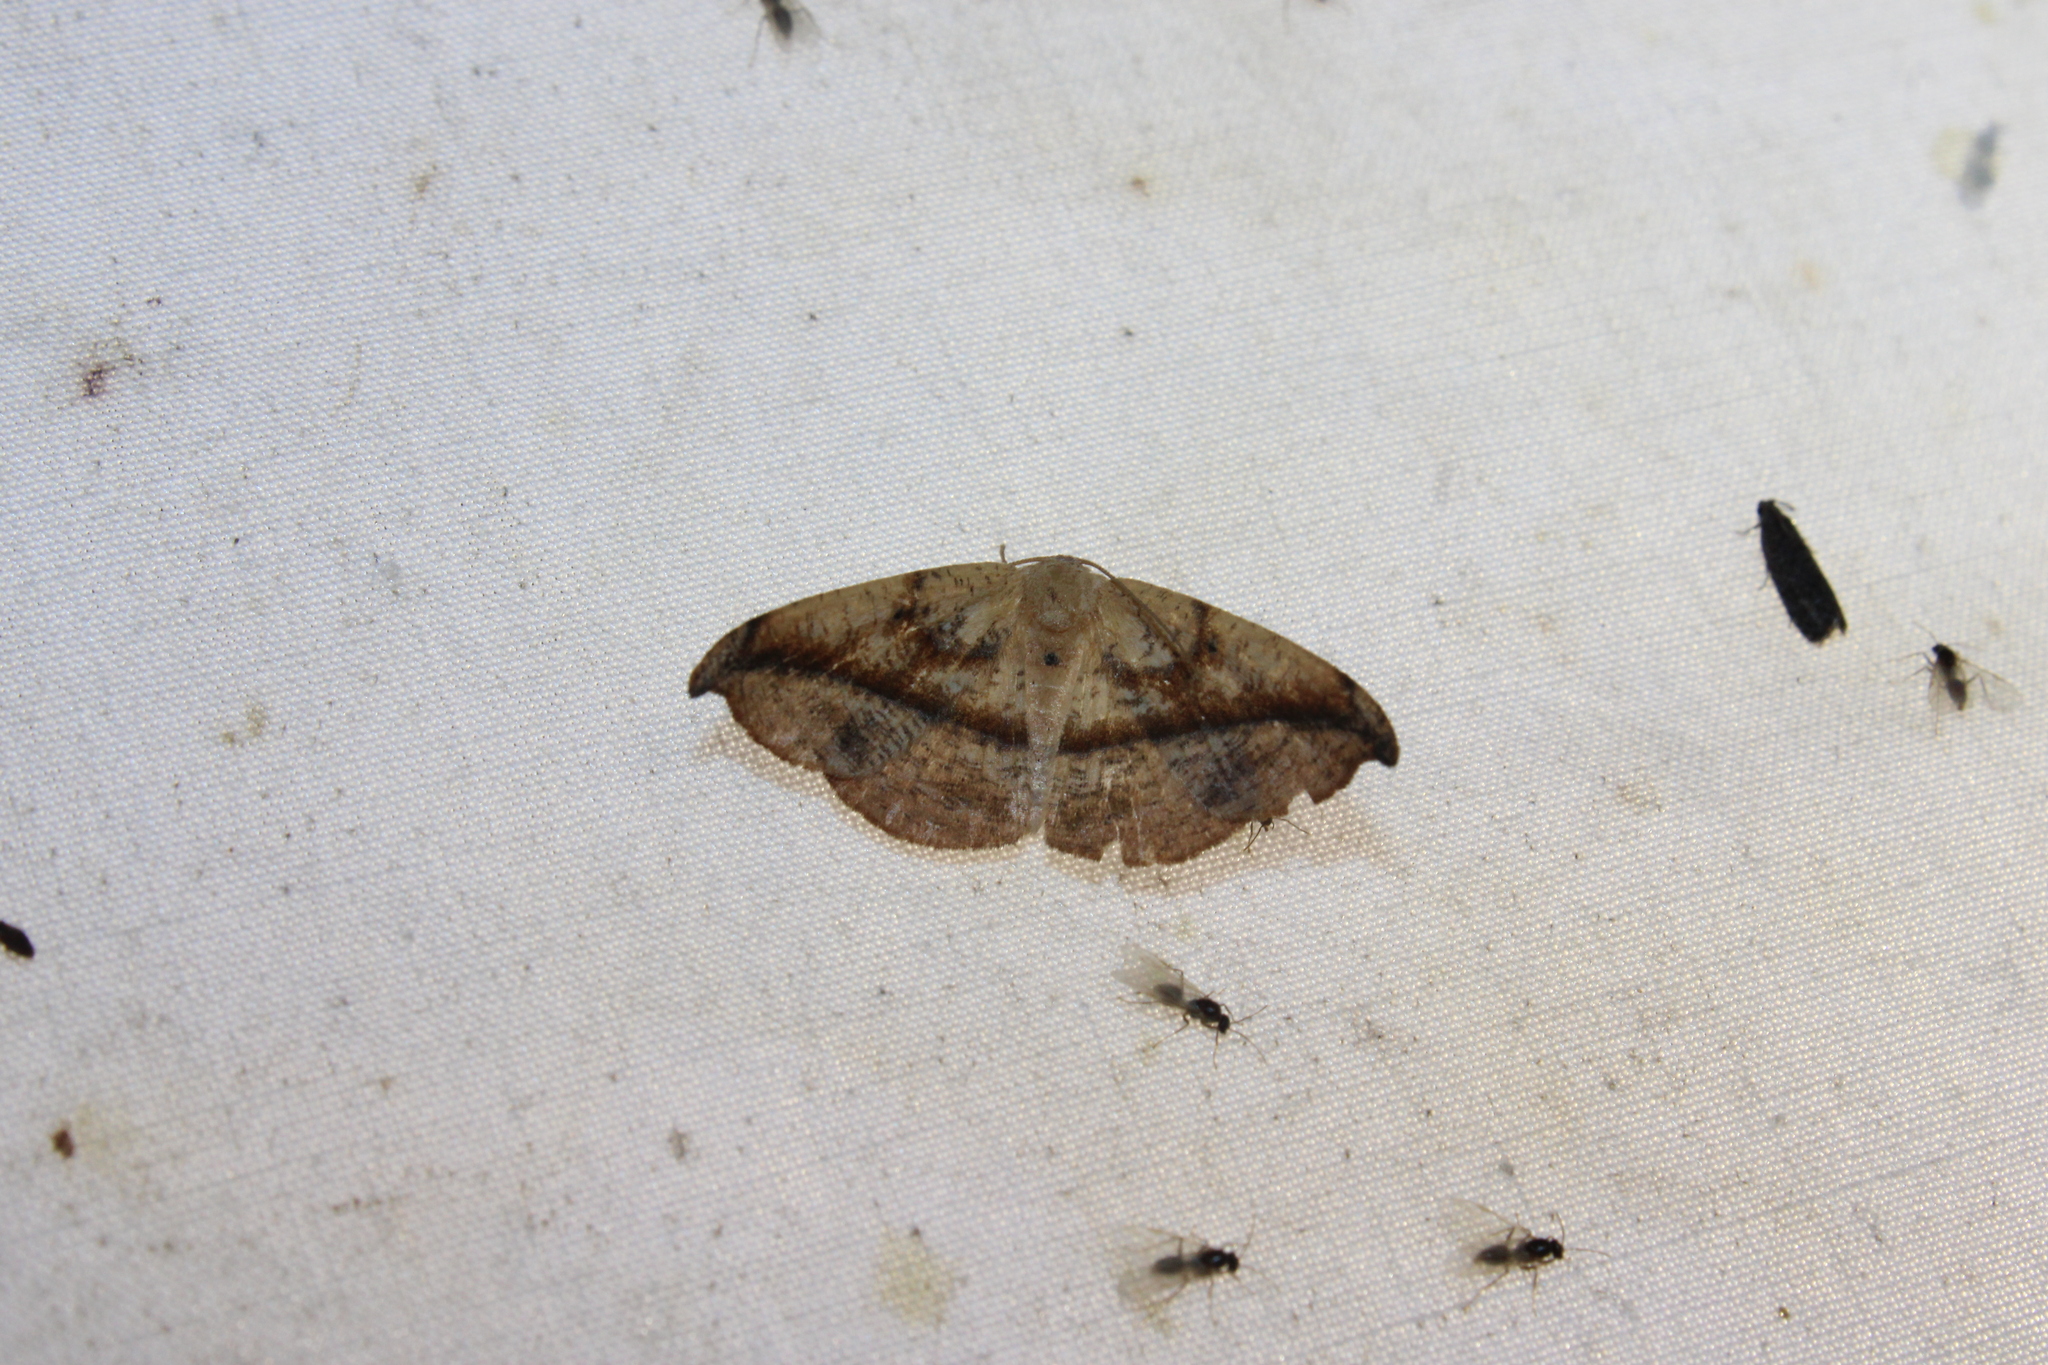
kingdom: Animalia
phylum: Arthropoda
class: Insecta
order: Lepidoptera
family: Geometridae
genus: Patalene
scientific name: Patalene olyzonaria
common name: Juniper geometer moth
